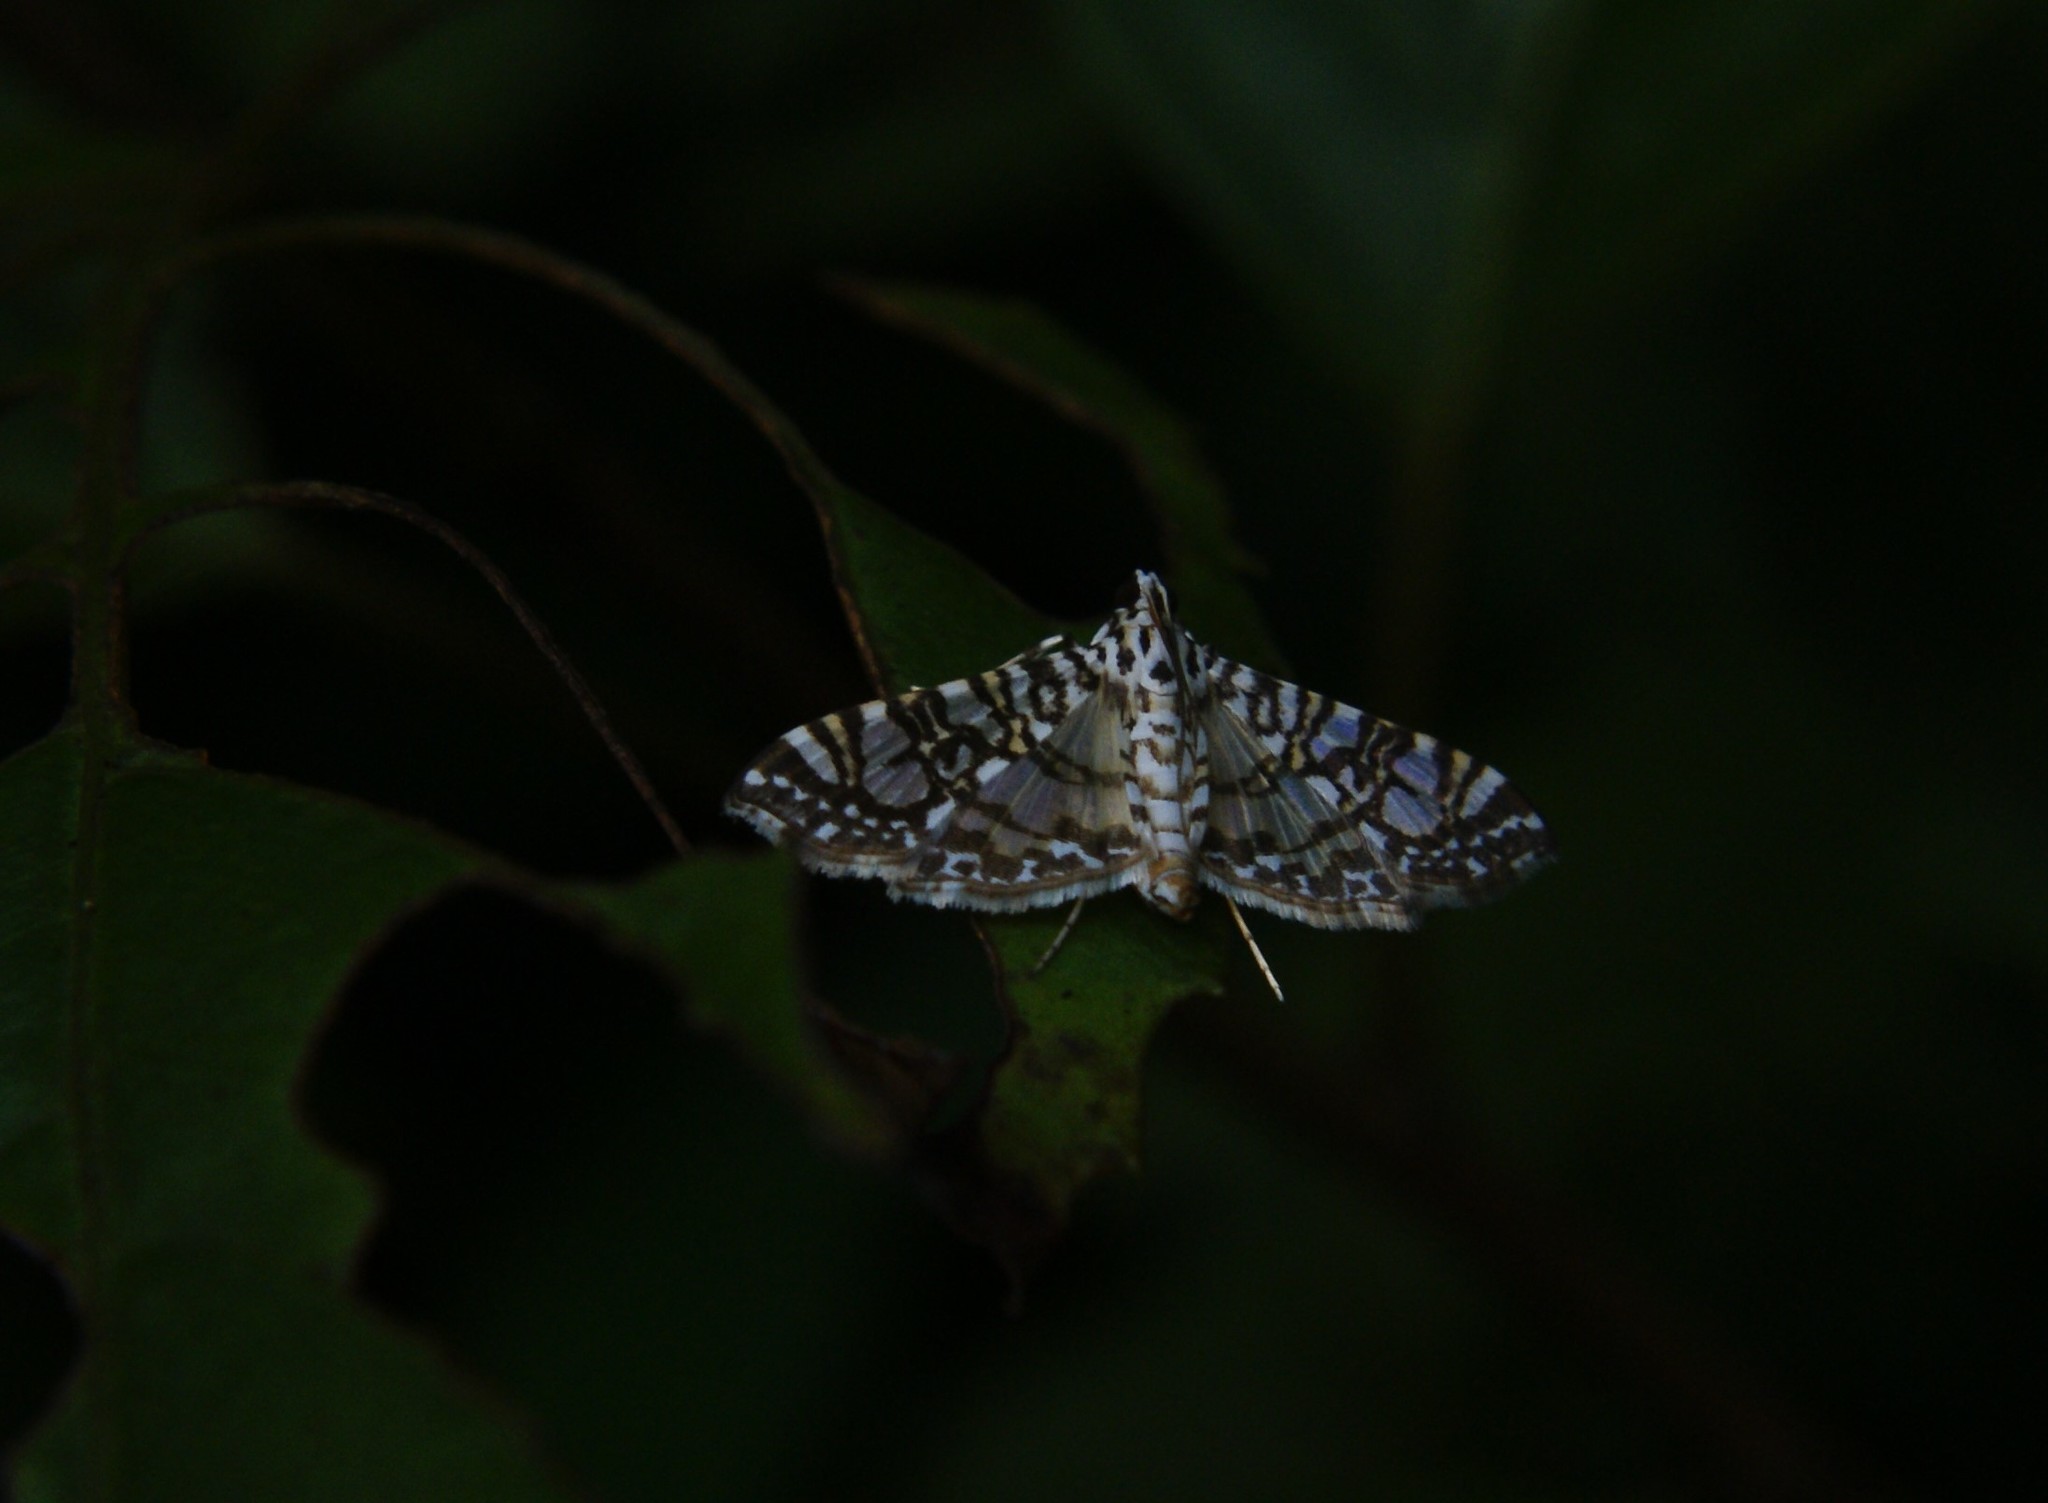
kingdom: Animalia
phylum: Arthropoda
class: Insecta
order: Lepidoptera
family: Crambidae
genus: Glyphodes
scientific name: Glyphodes onychinalis
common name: Swan plant moth
